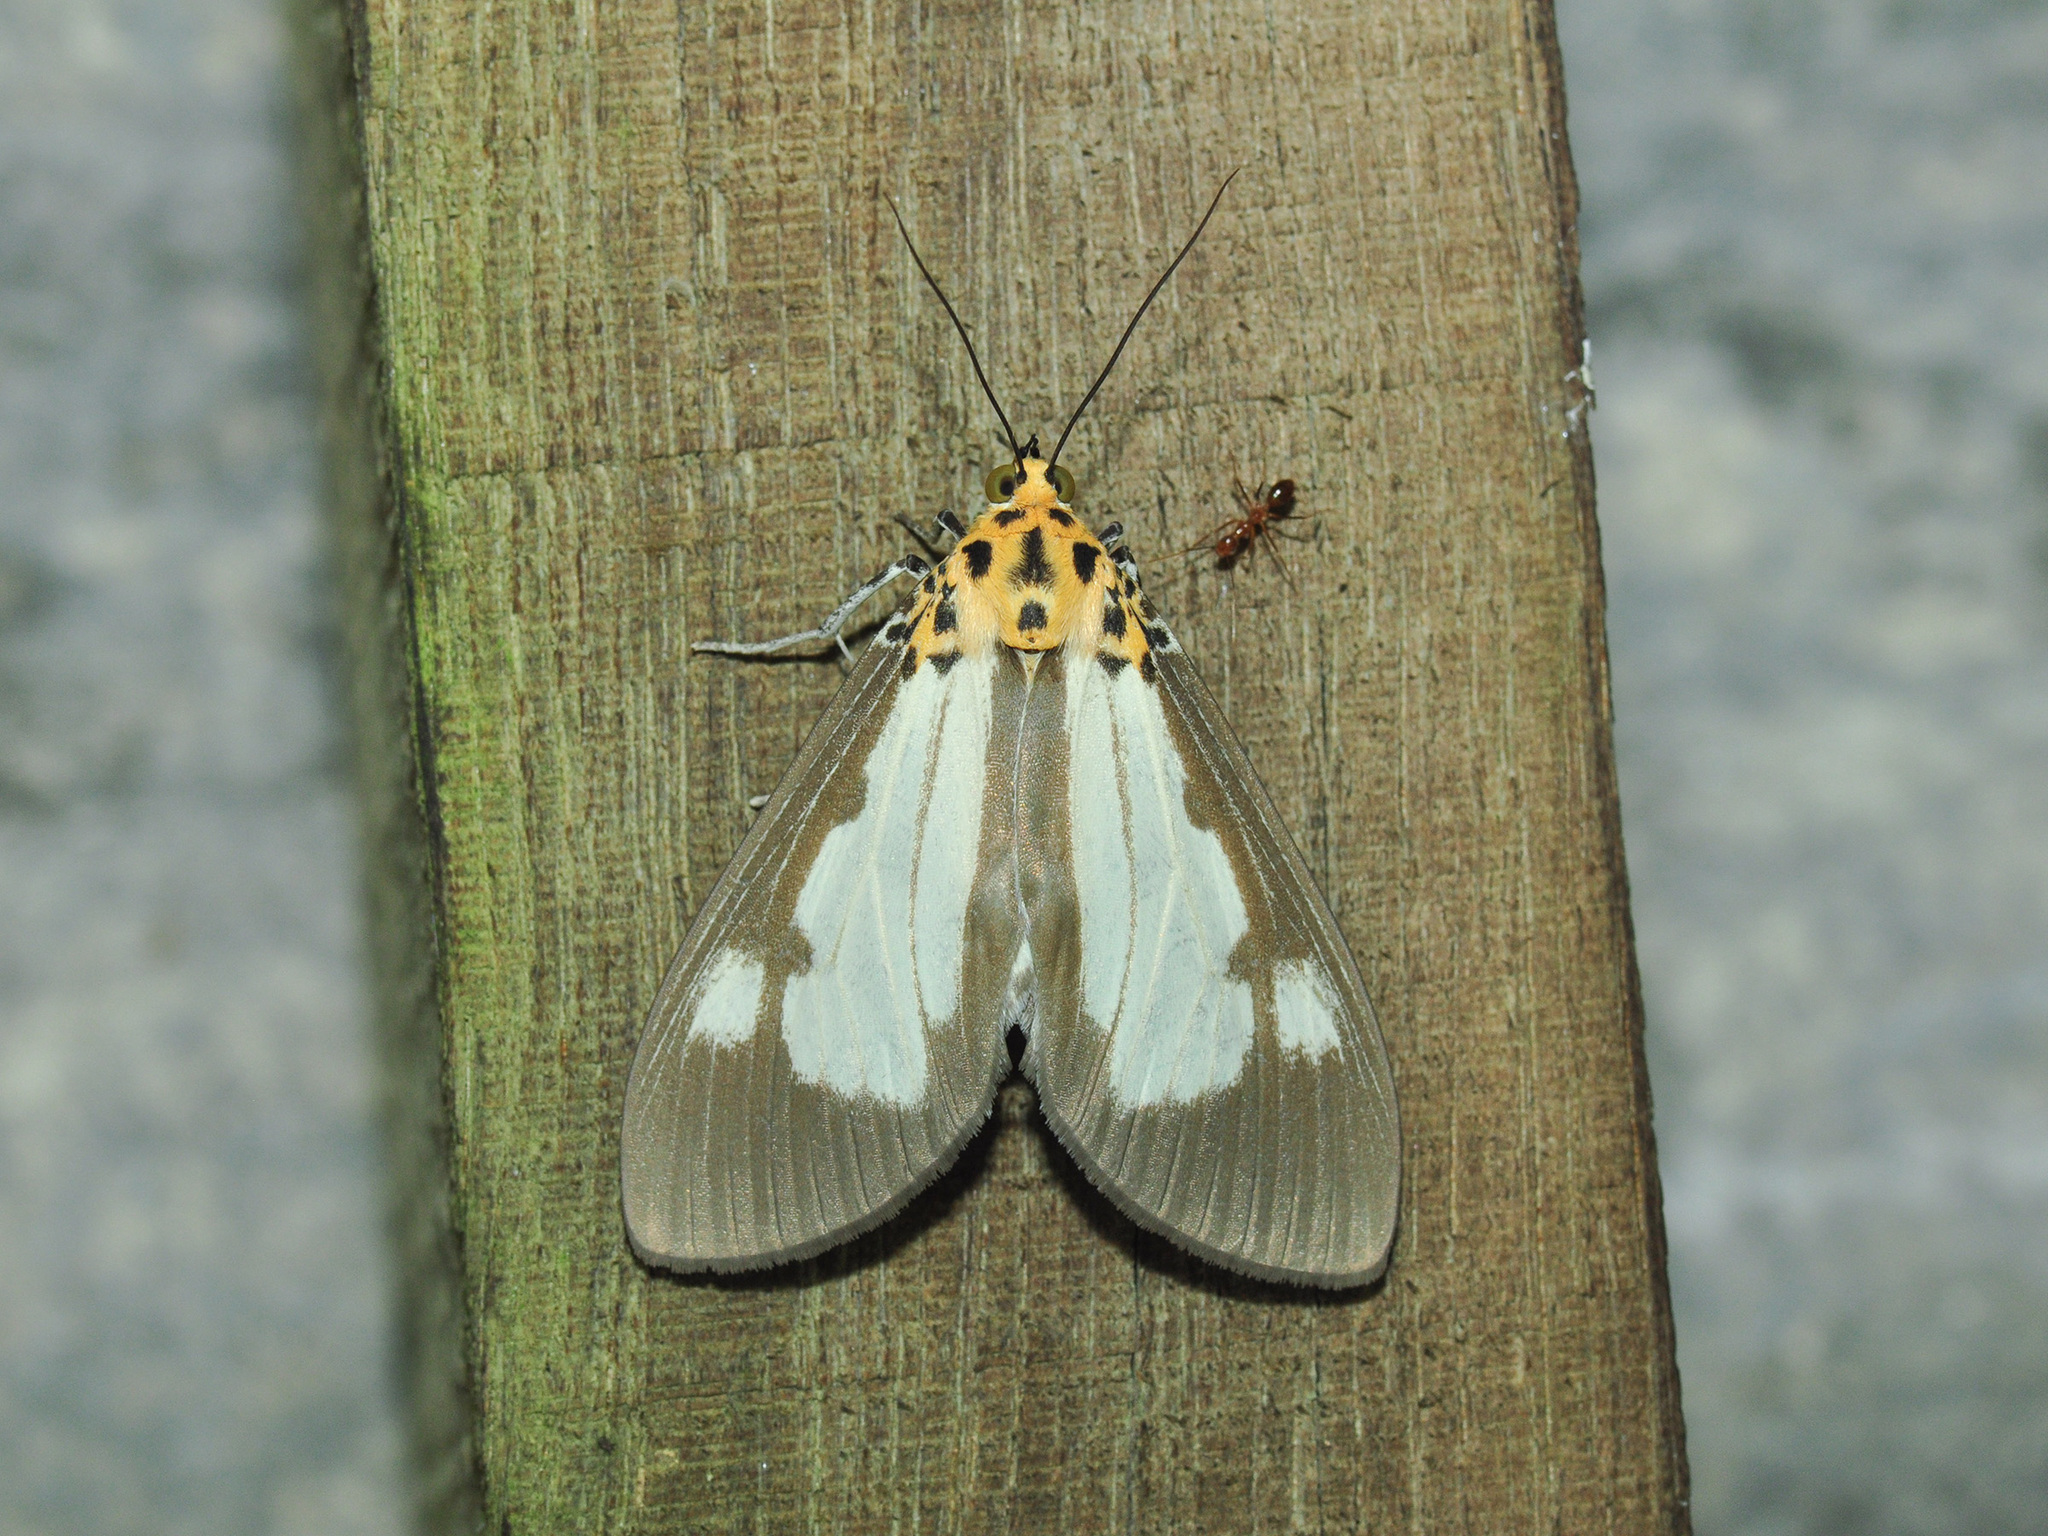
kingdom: Animalia
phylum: Arthropoda
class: Insecta
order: Lepidoptera
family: Erebidae
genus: Asota
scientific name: Asota plana
